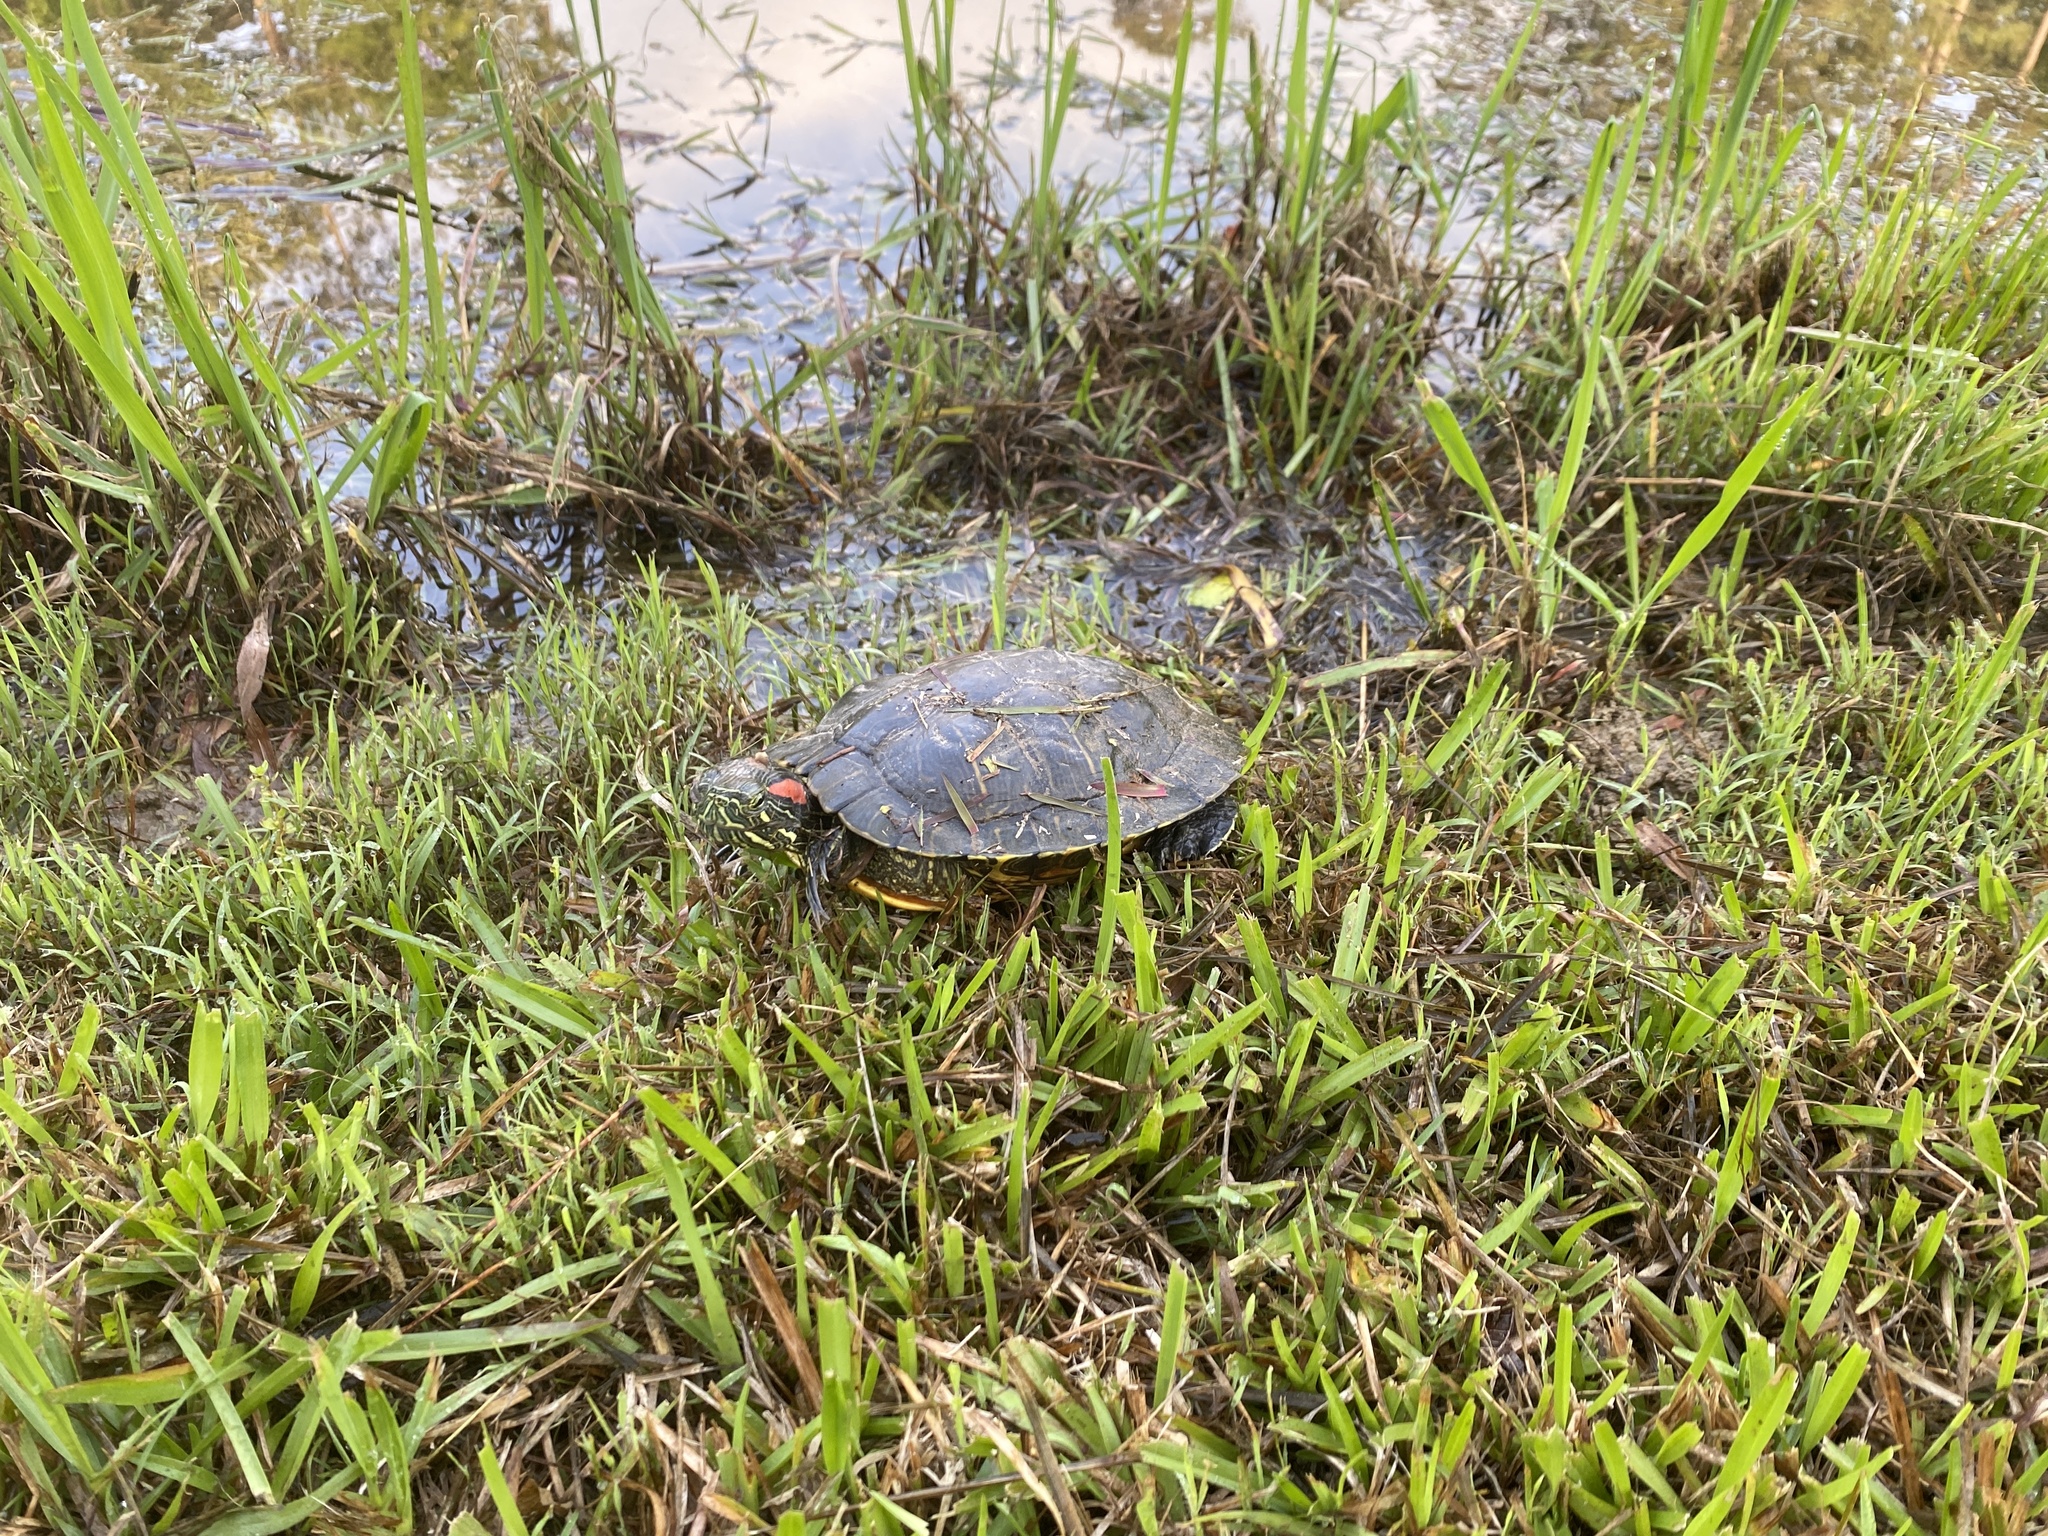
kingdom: Animalia
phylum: Chordata
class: Testudines
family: Emydidae
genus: Trachemys
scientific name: Trachemys scripta
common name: Slider
